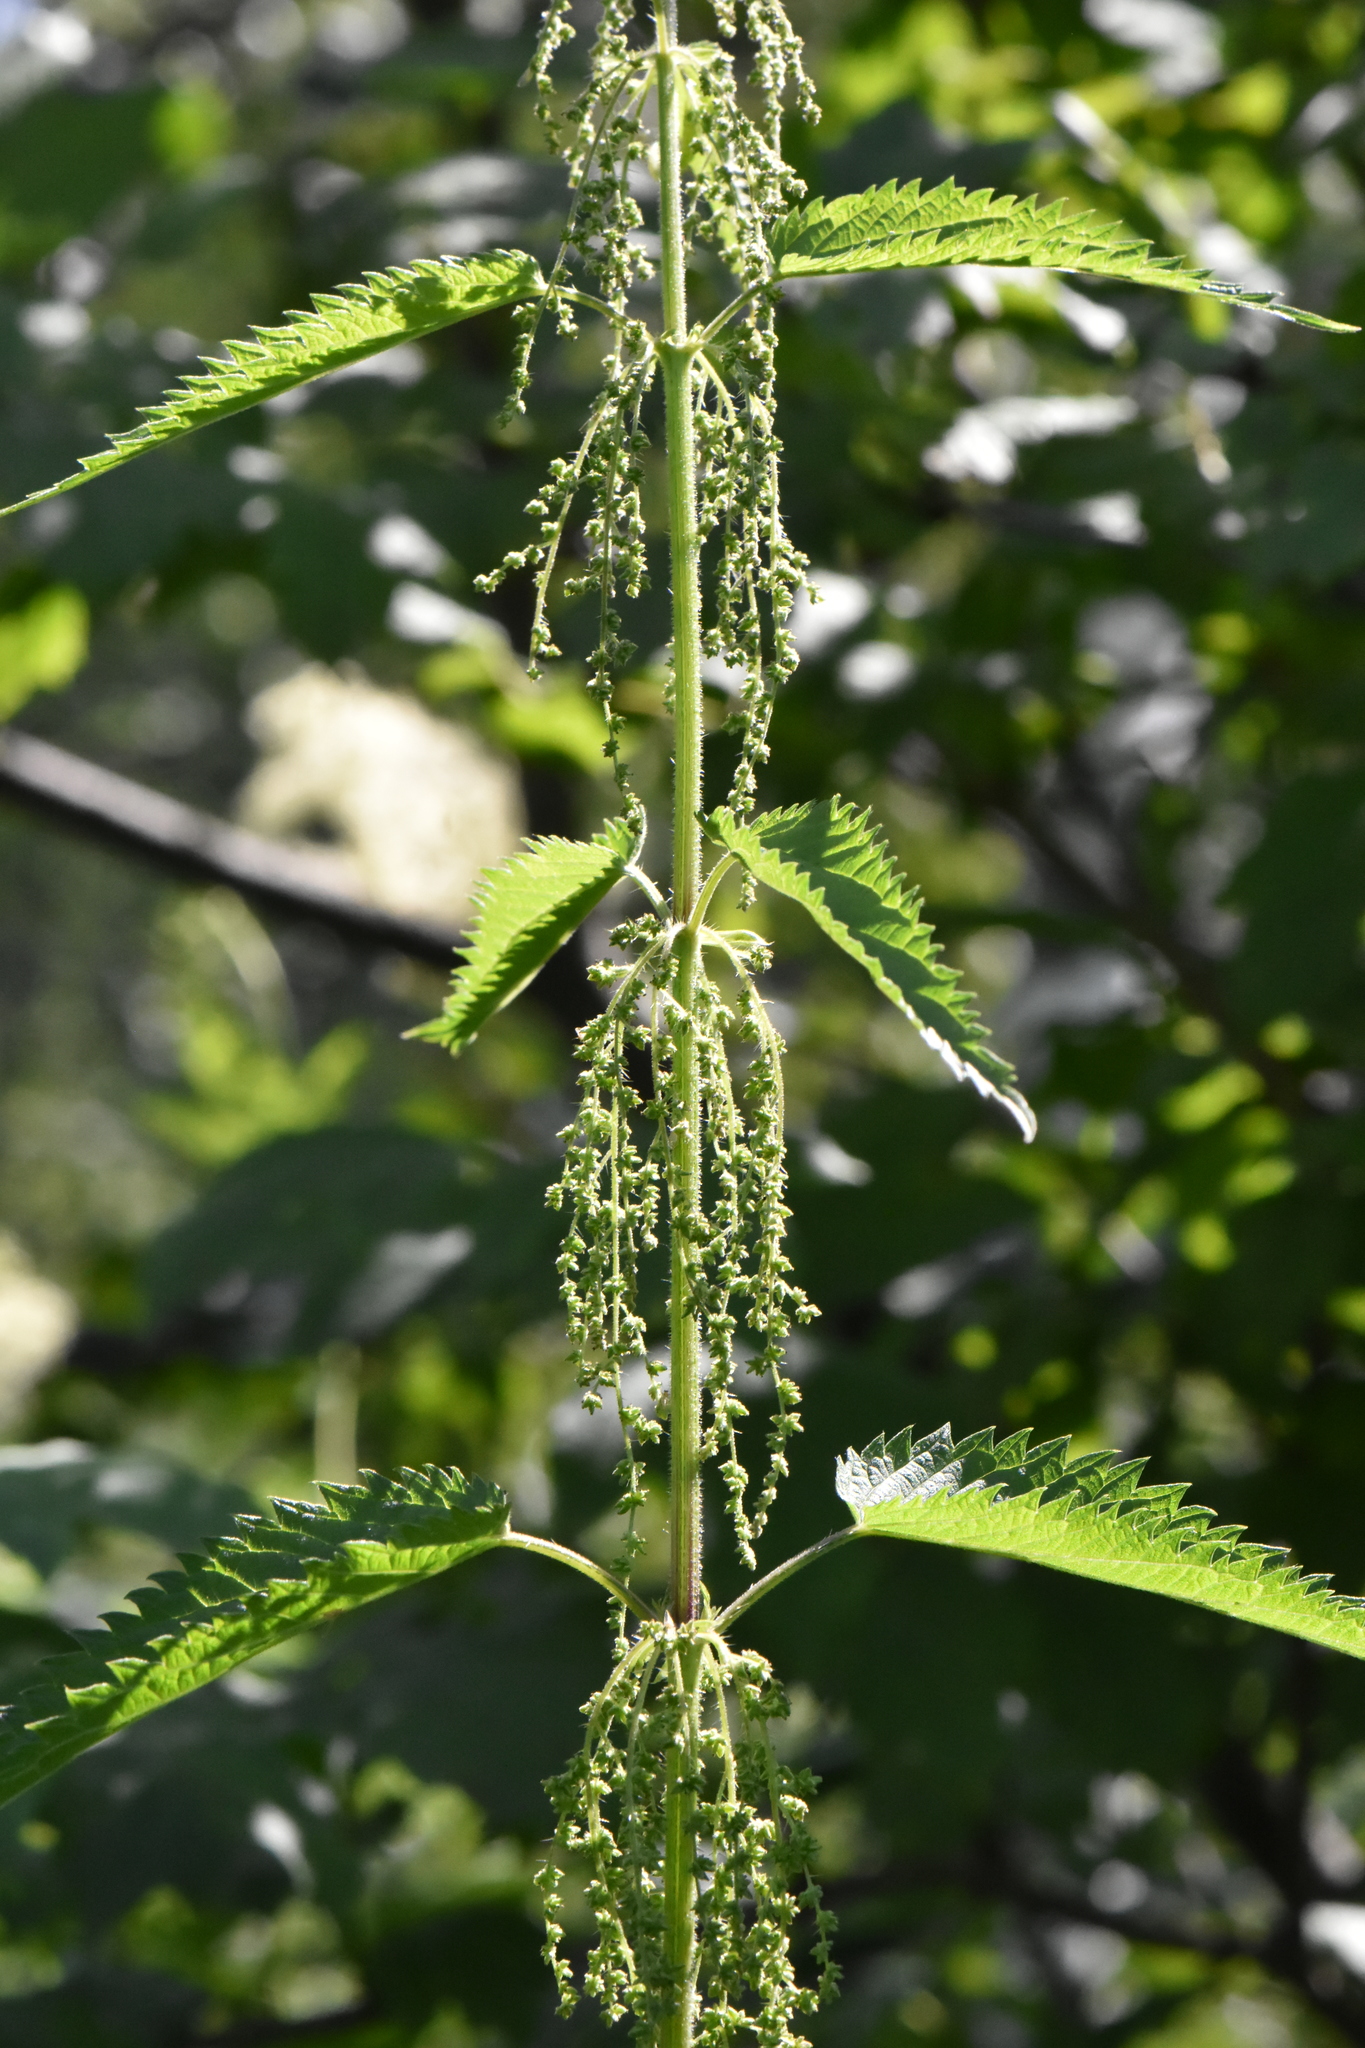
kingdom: Plantae
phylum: Tracheophyta
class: Magnoliopsida
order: Rosales
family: Urticaceae
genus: Urtica
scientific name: Urtica dioica
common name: Common nettle
